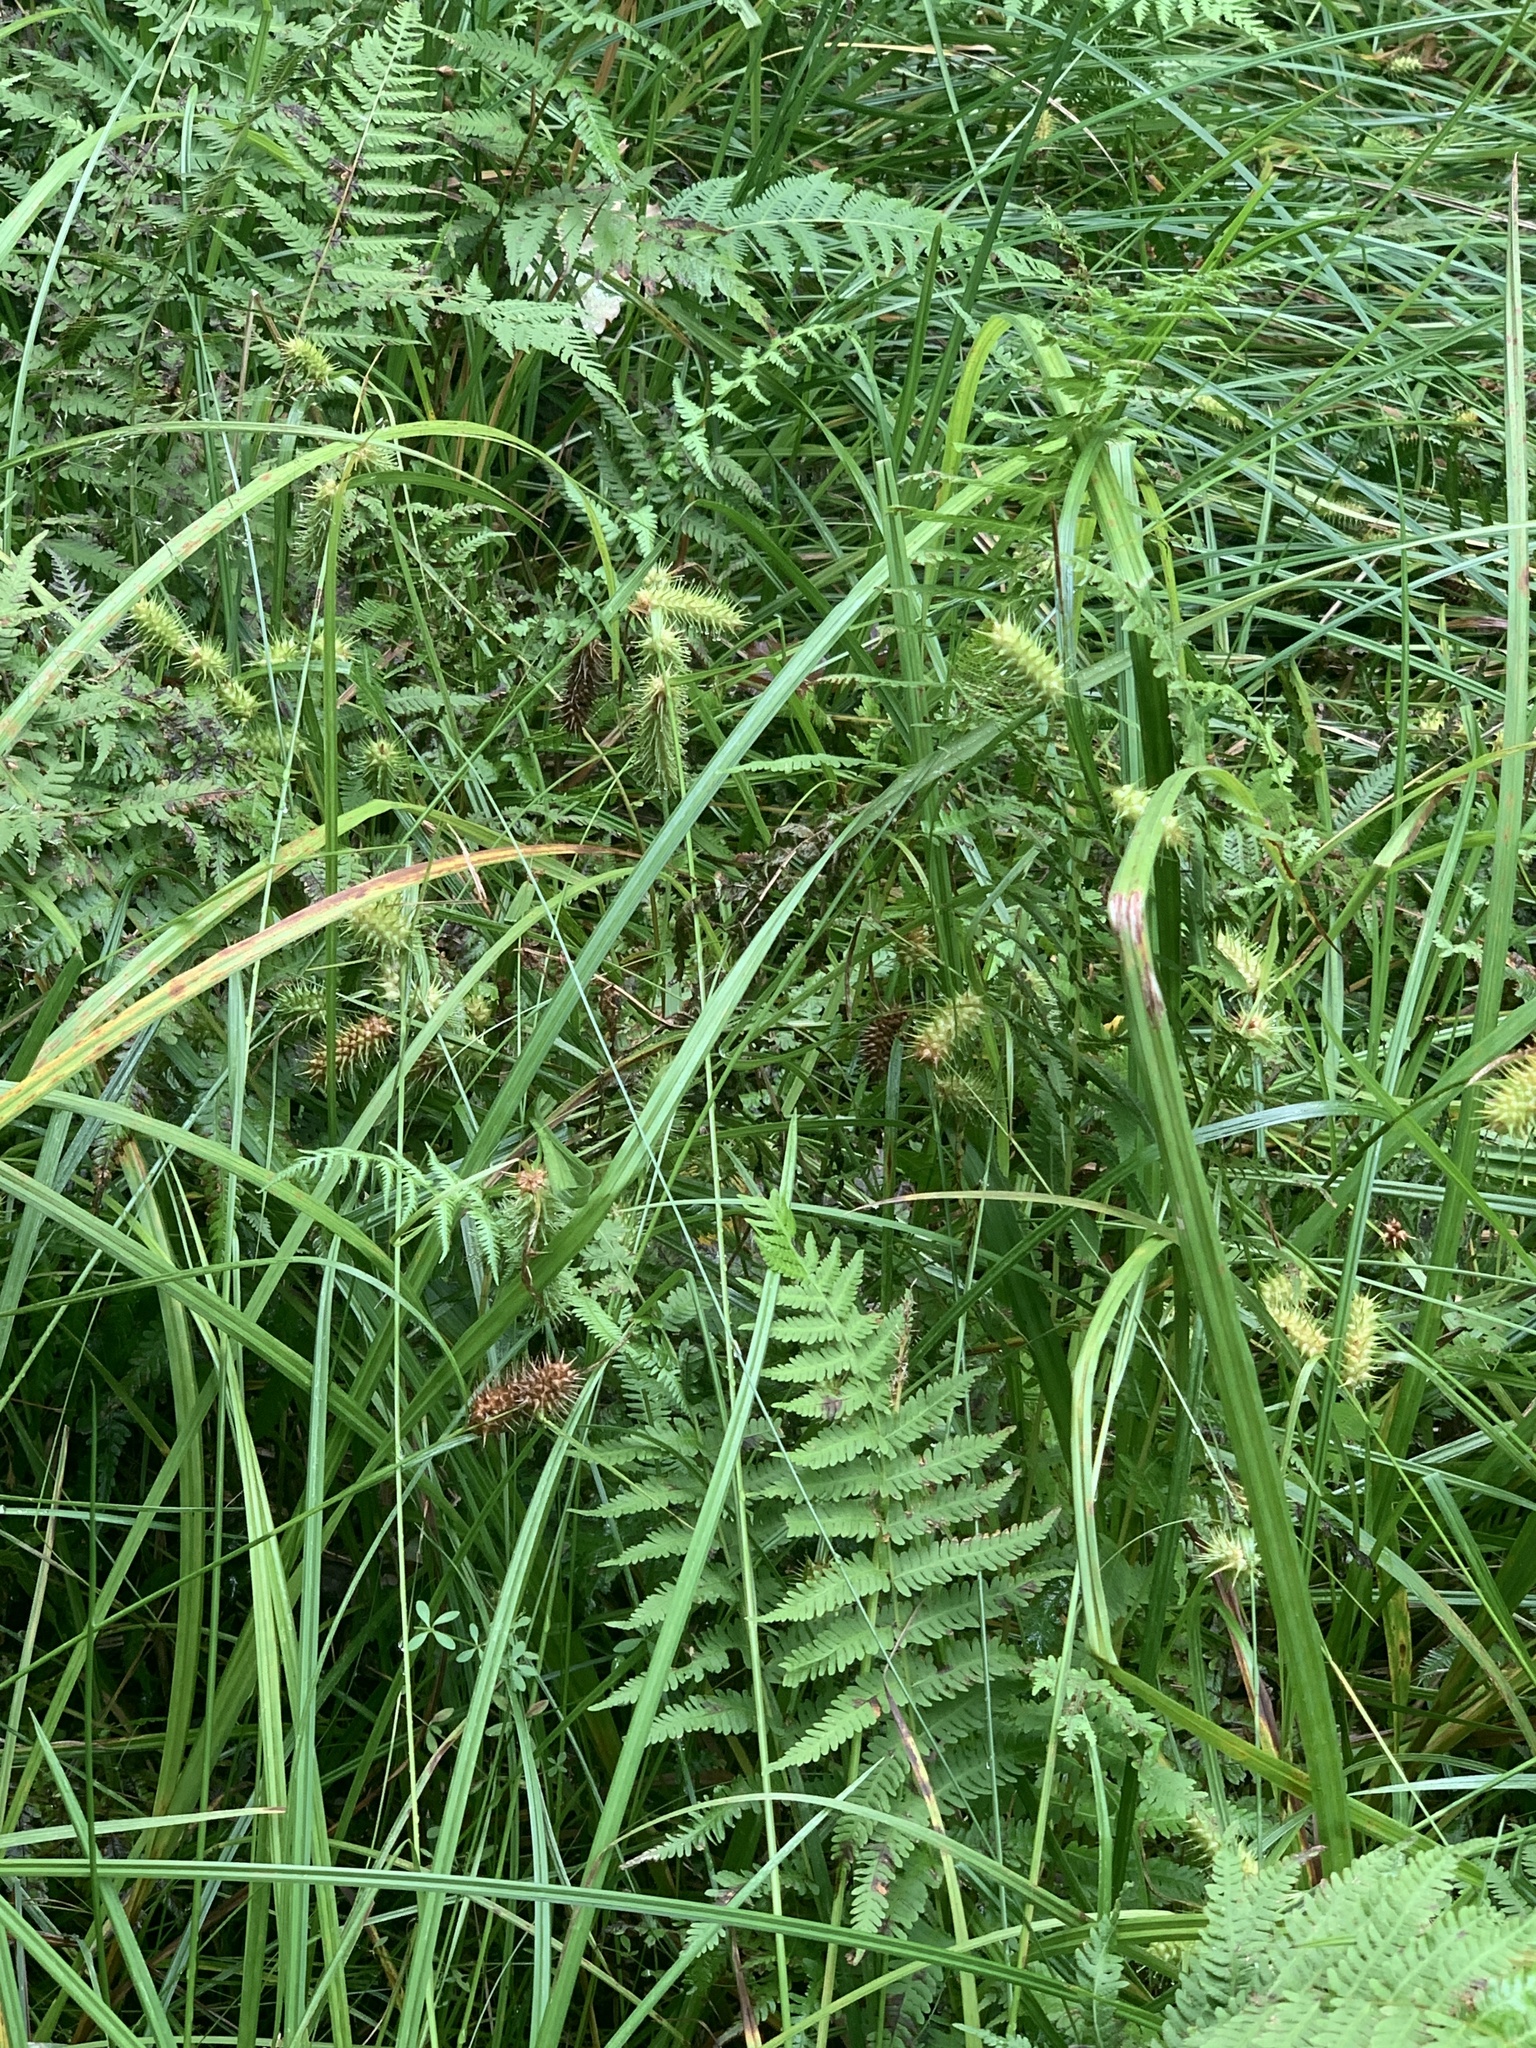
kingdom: Plantae
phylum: Tracheophyta
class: Liliopsida
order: Poales
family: Cyperaceae
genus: Carex
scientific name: Carex lurida
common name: Sallow sedge
